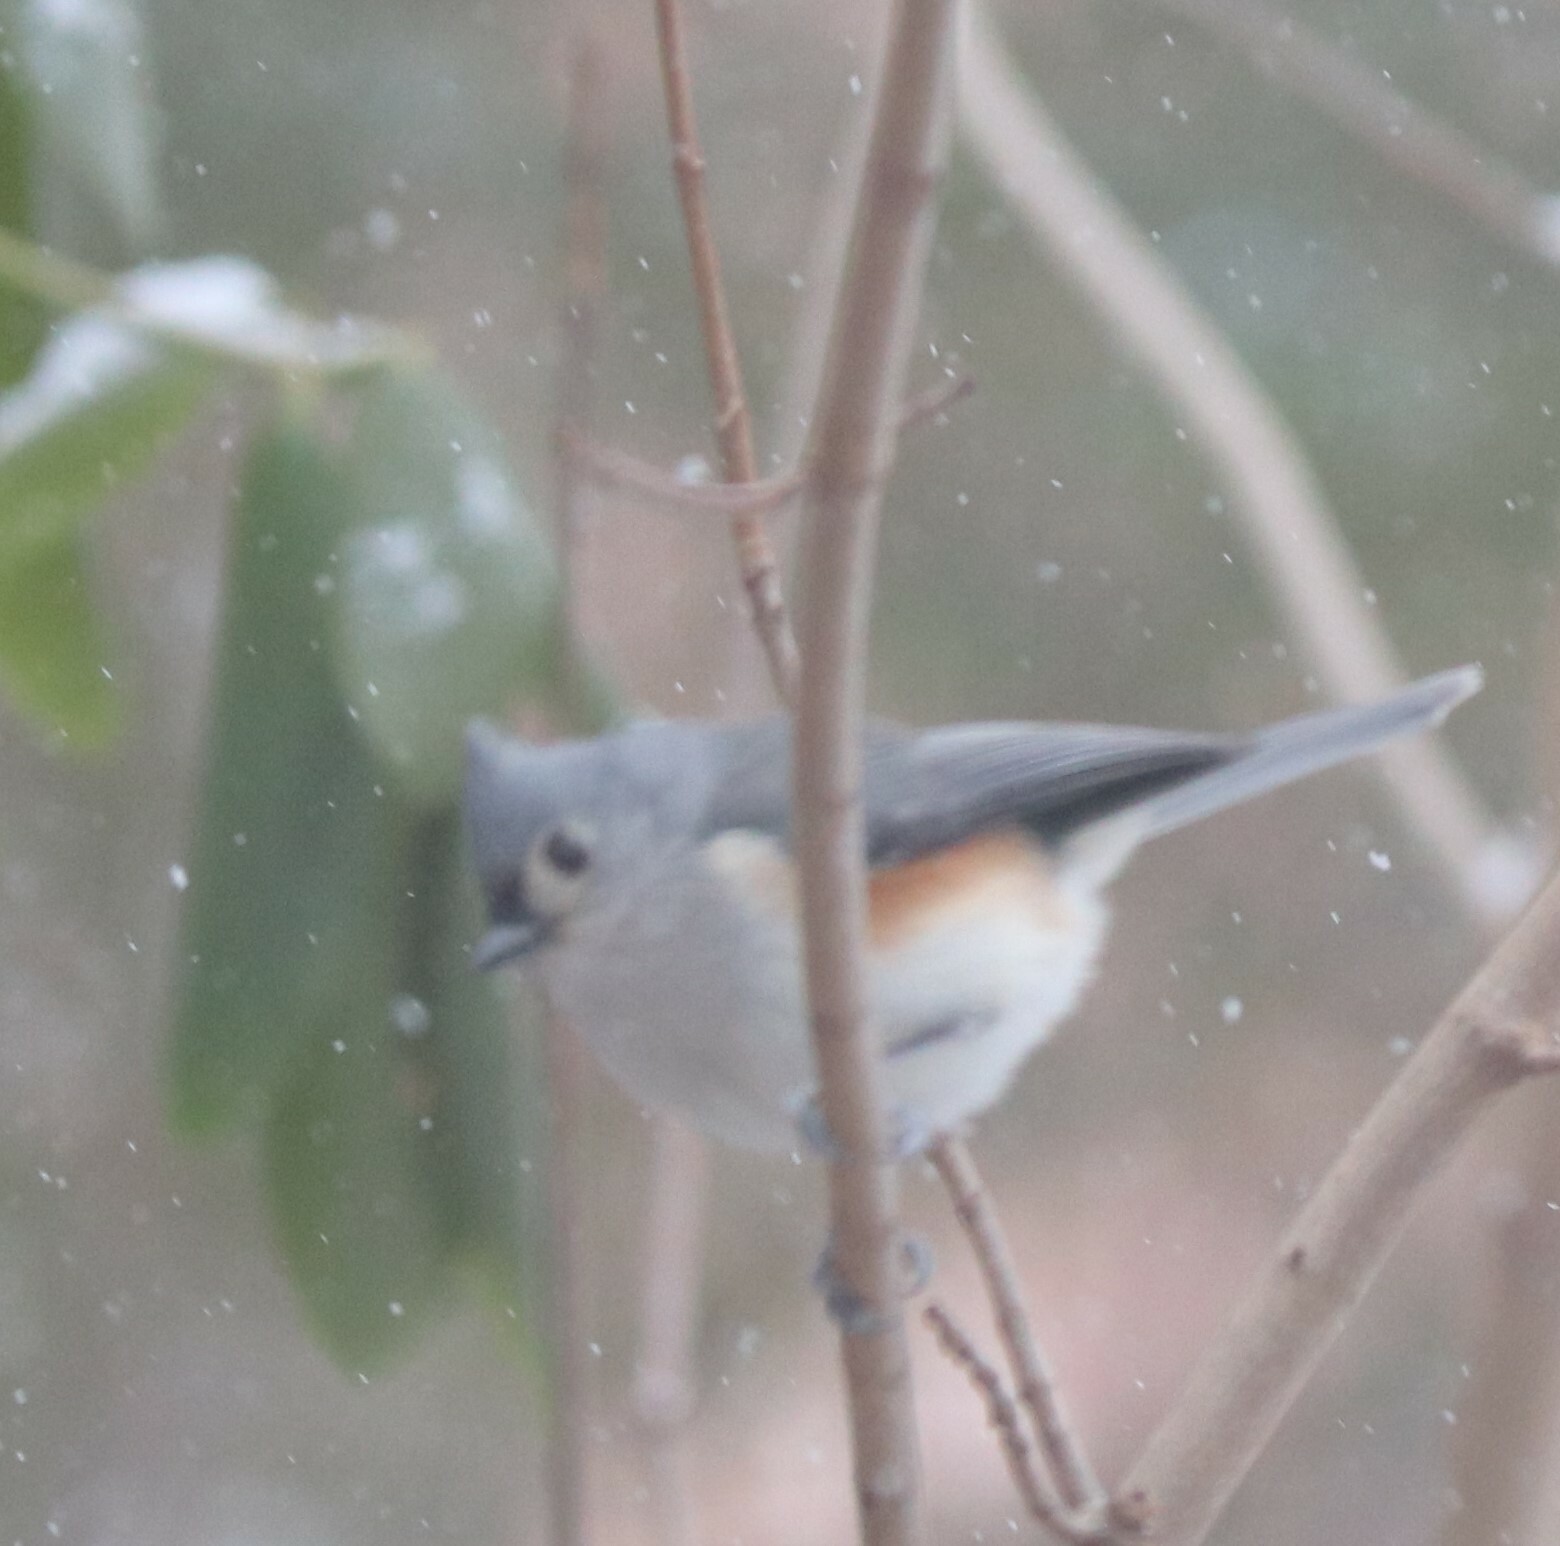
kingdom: Animalia
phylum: Chordata
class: Aves
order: Passeriformes
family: Paridae
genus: Baeolophus
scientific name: Baeolophus bicolor
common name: Tufted titmouse
